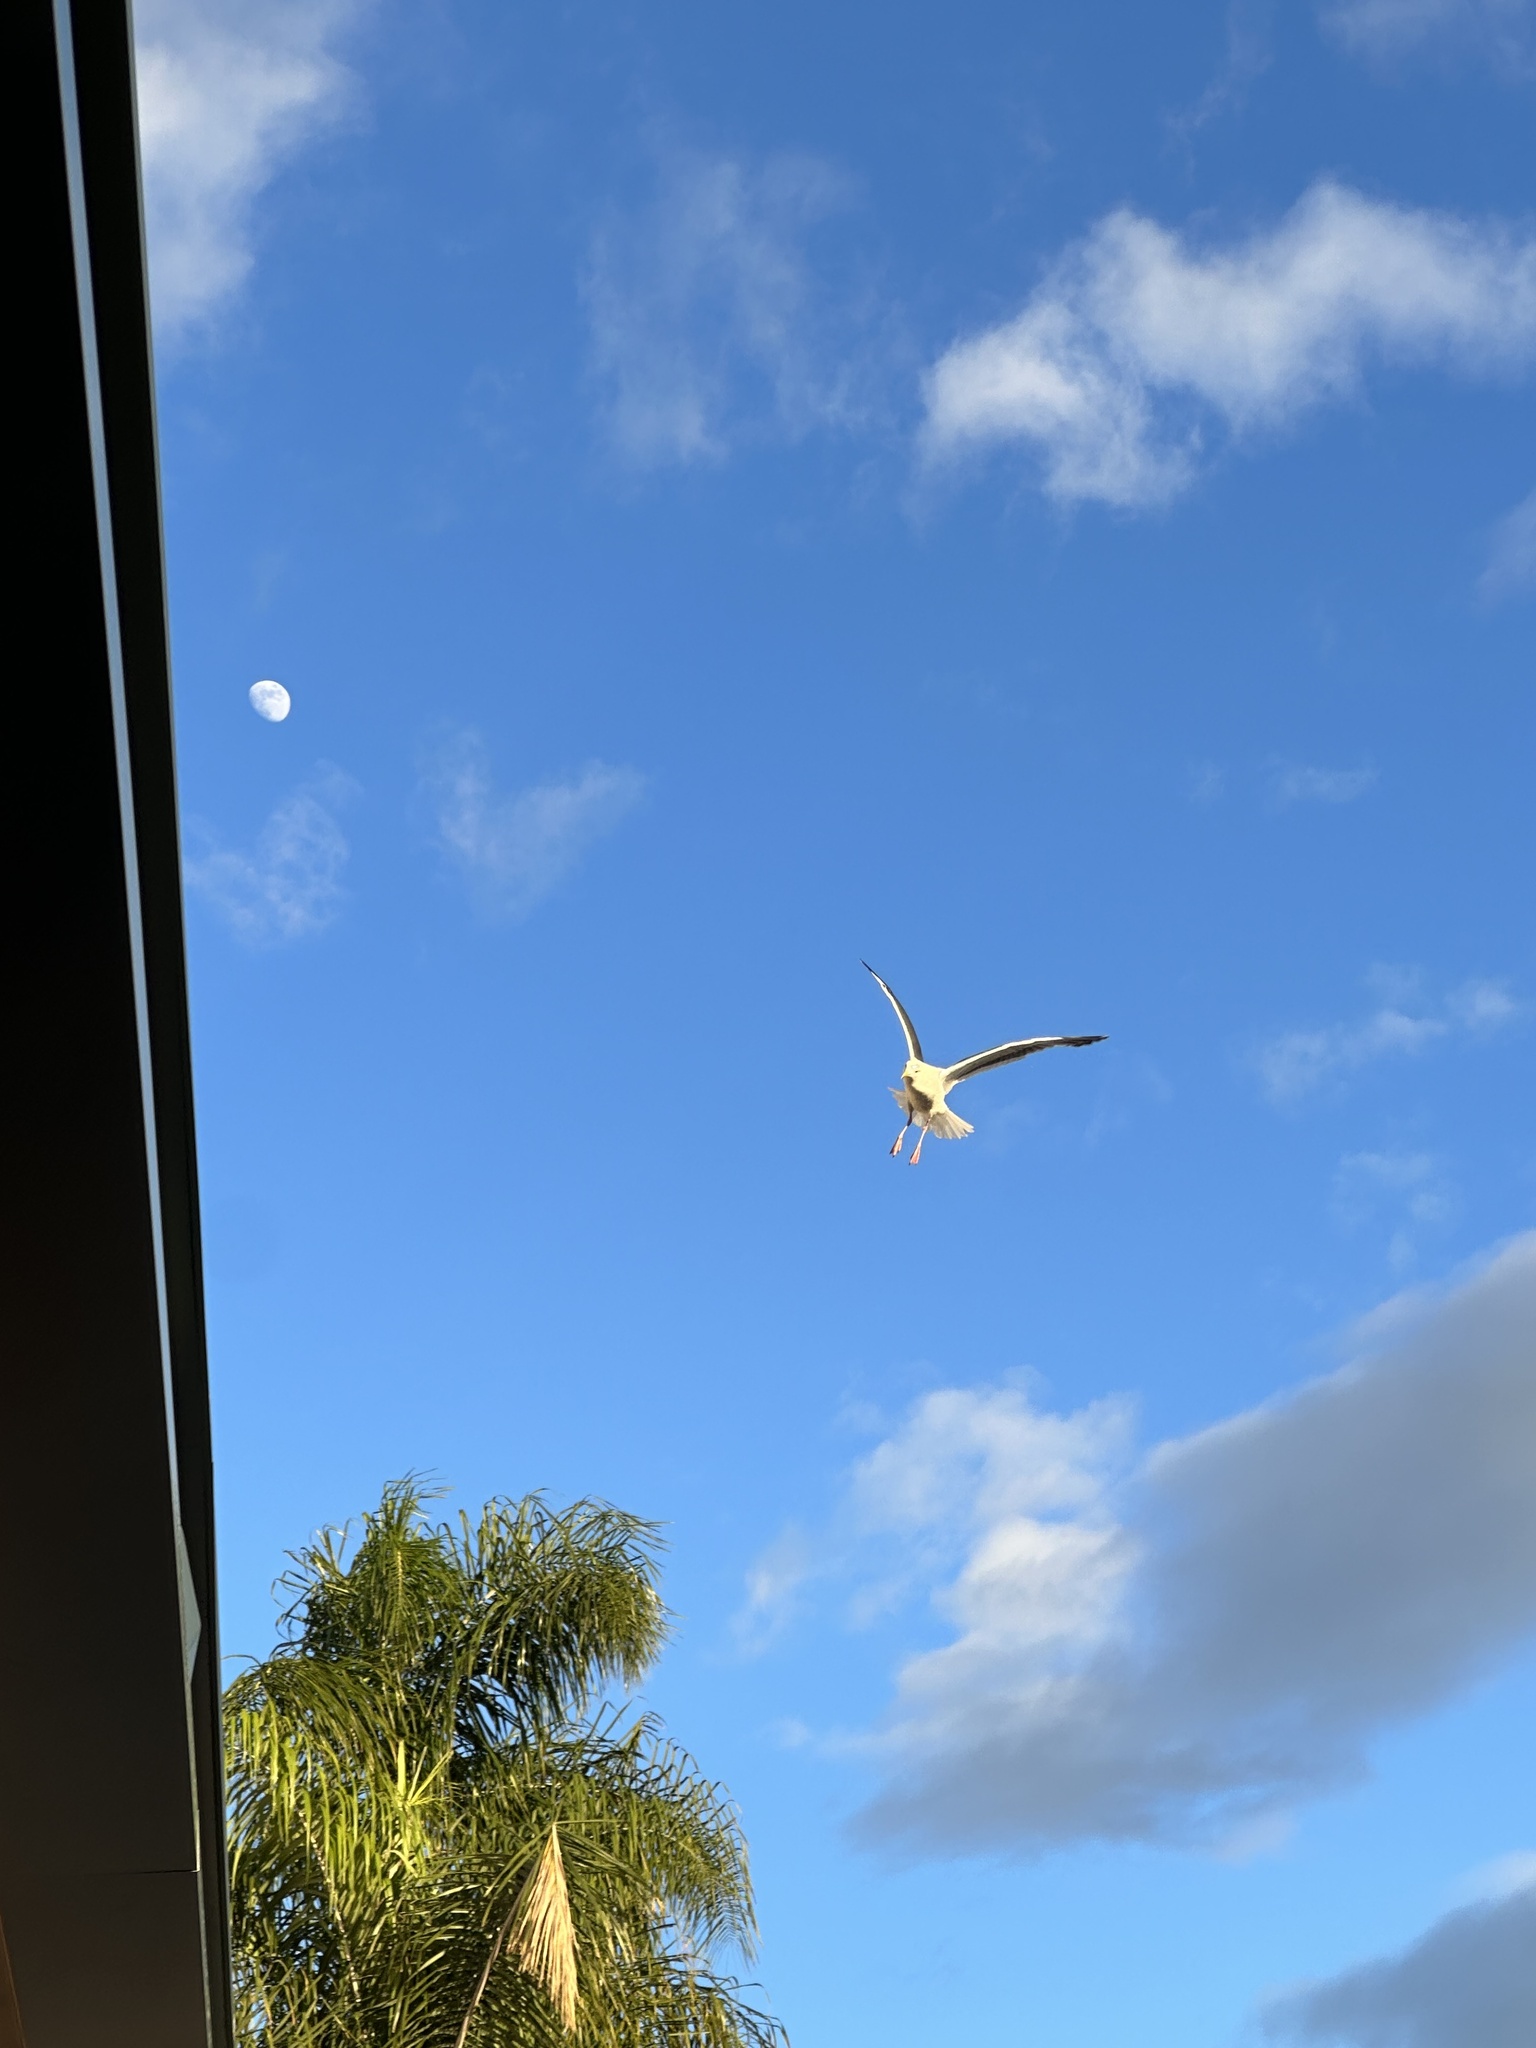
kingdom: Animalia
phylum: Chordata
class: Aves
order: Charadriiformes
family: Laridae
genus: Larus
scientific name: Larus occidentalis
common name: Western gull
